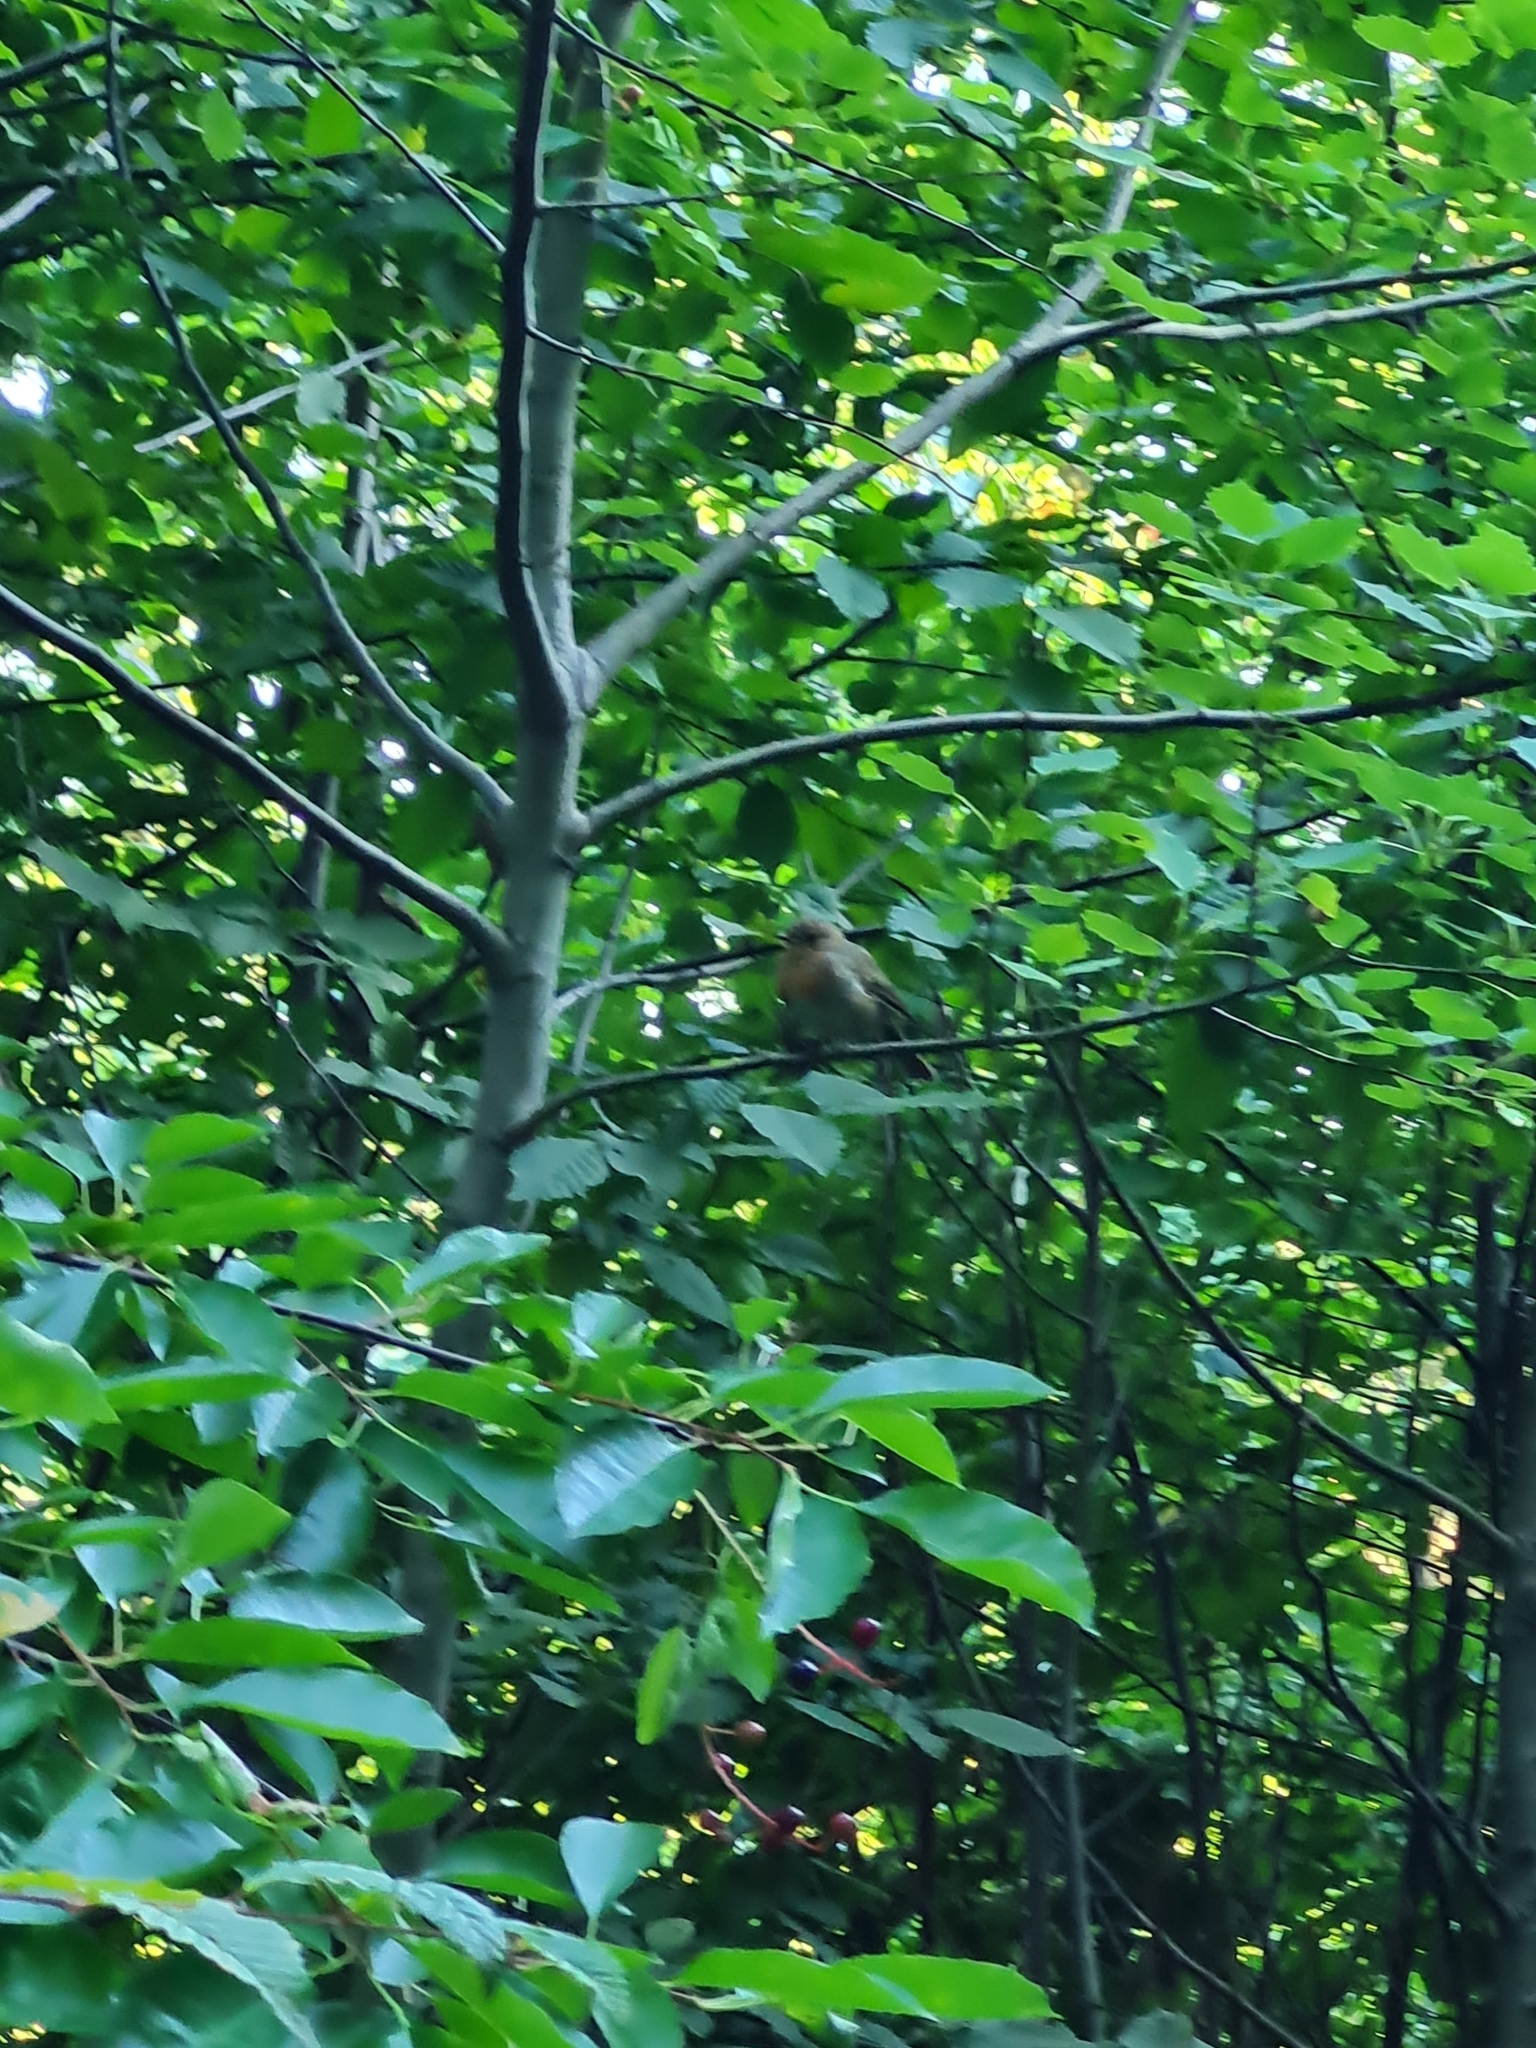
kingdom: Animalia
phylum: Chordata
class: Aves
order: Passeriformes
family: Muscicapidae
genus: Erithacus
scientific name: Erithacus rubecula
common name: European robin
